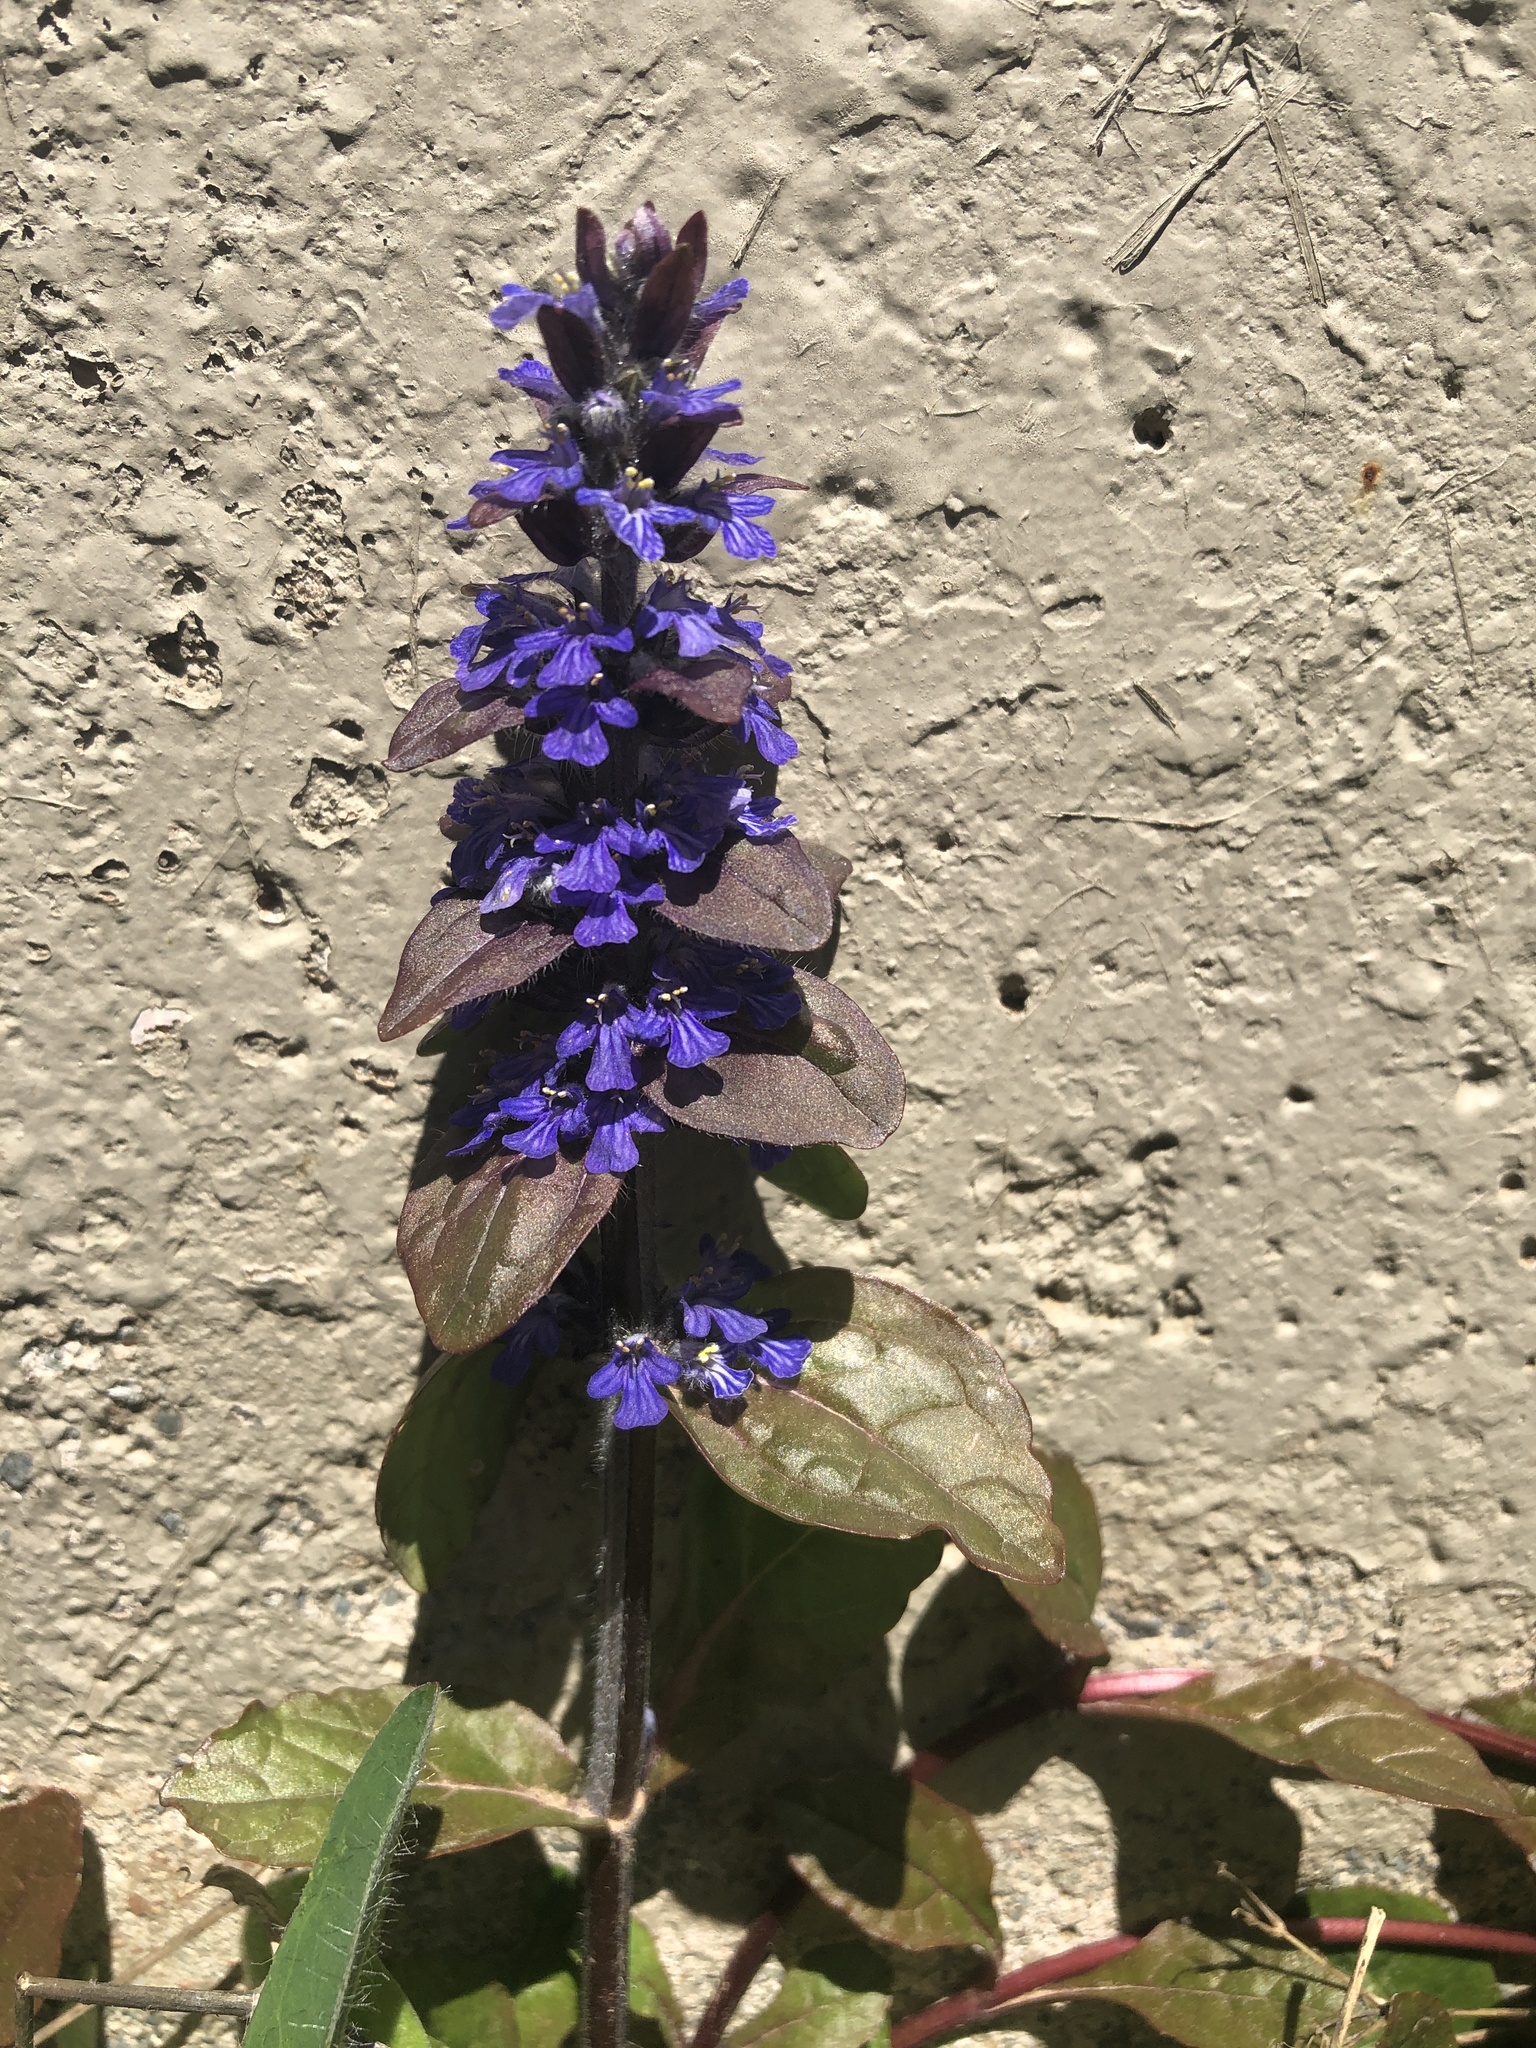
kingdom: Plantae
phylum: Tracheophyta
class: Magnoliopsida
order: Lamiales
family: Lamiaceae
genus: Ajuga
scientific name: Ajuga reptans
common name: Bugle
